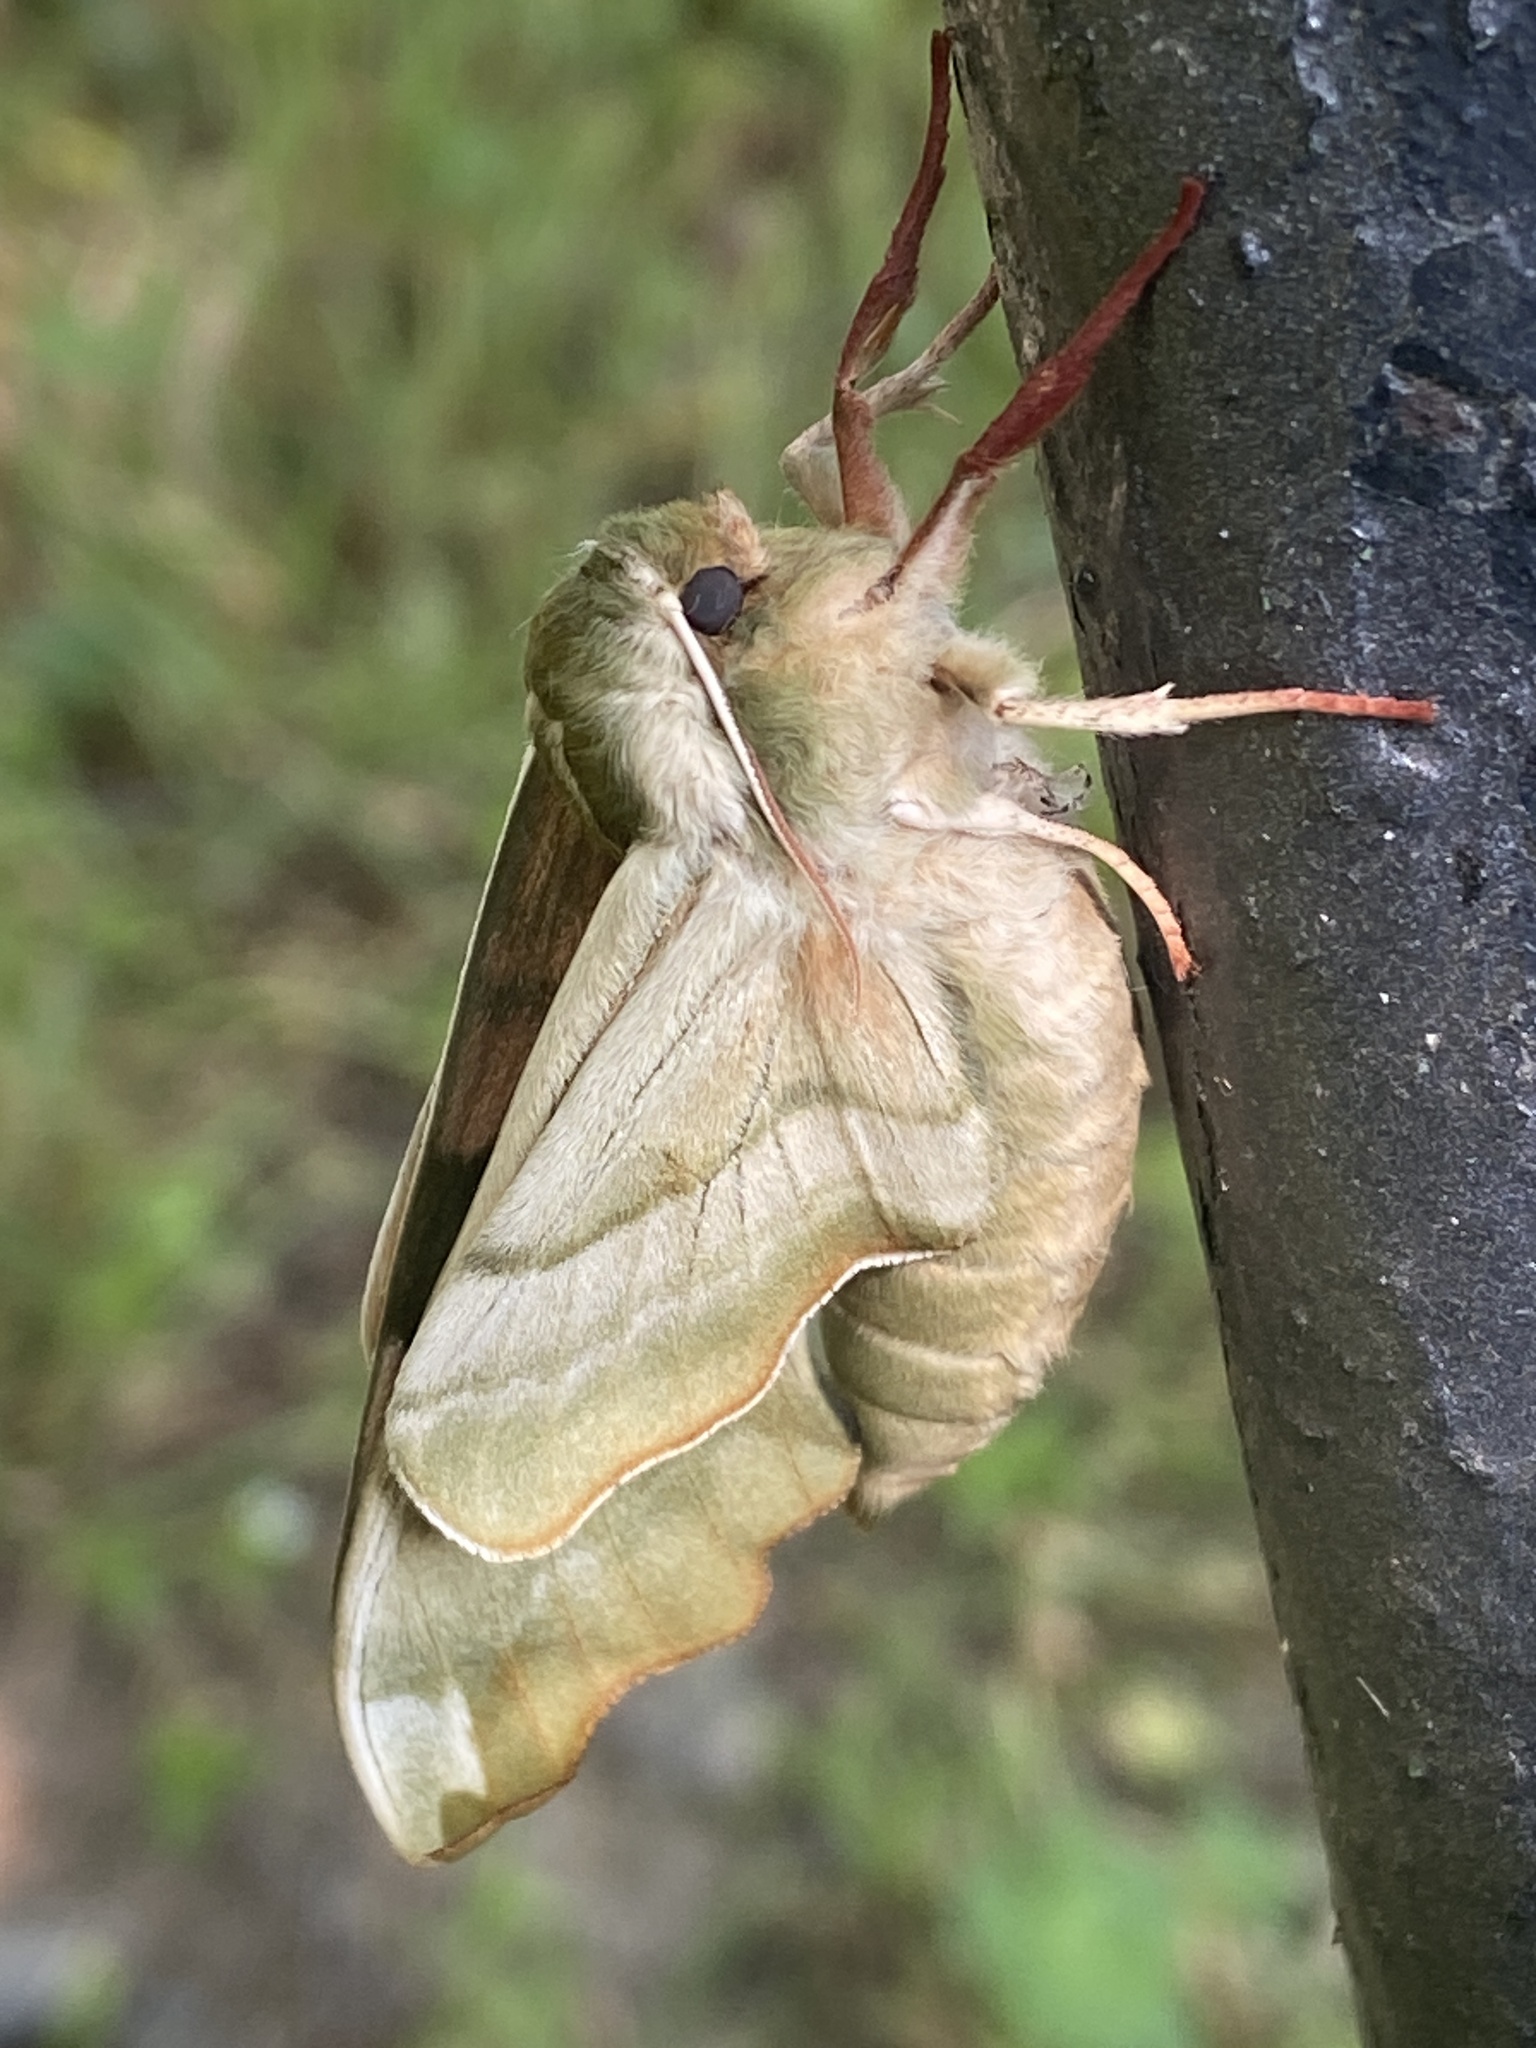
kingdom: Animalia
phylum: Arthropoda
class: Insecta
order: Lepidoptera
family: Sphingidae
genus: Mimas
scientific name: Mimas tiliae
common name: Lime hawk-moth
